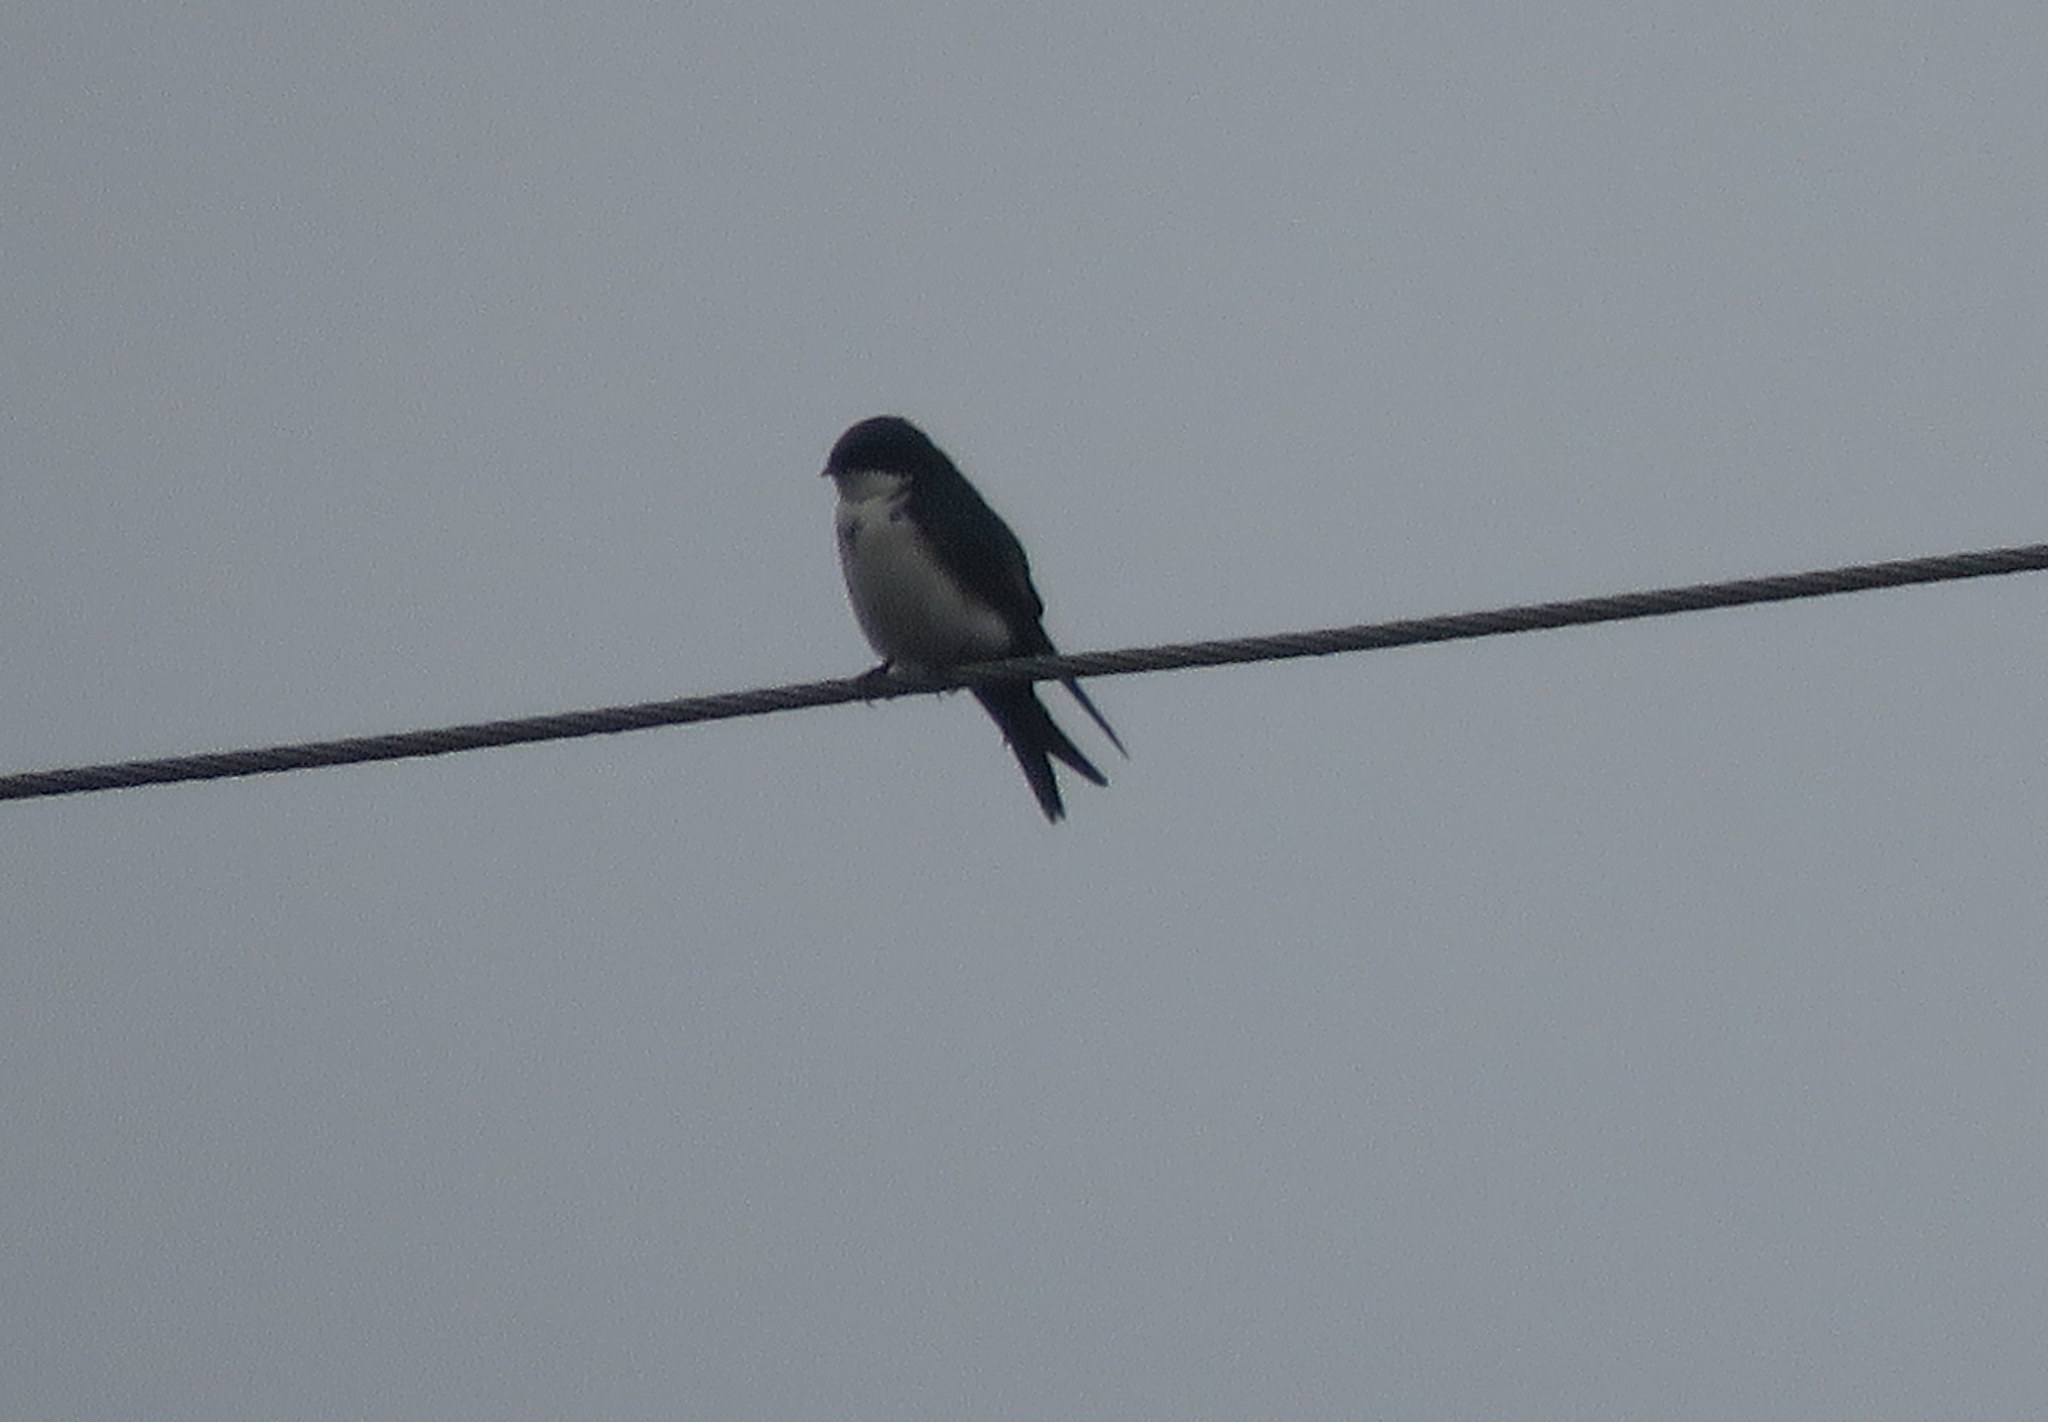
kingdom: Animalia
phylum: Chordata
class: Aves
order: Passeriformes
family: Hirundinidae
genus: Notiochelidon
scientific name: Notiochelidon cyanoleuca
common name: Blue-and-white swallow
